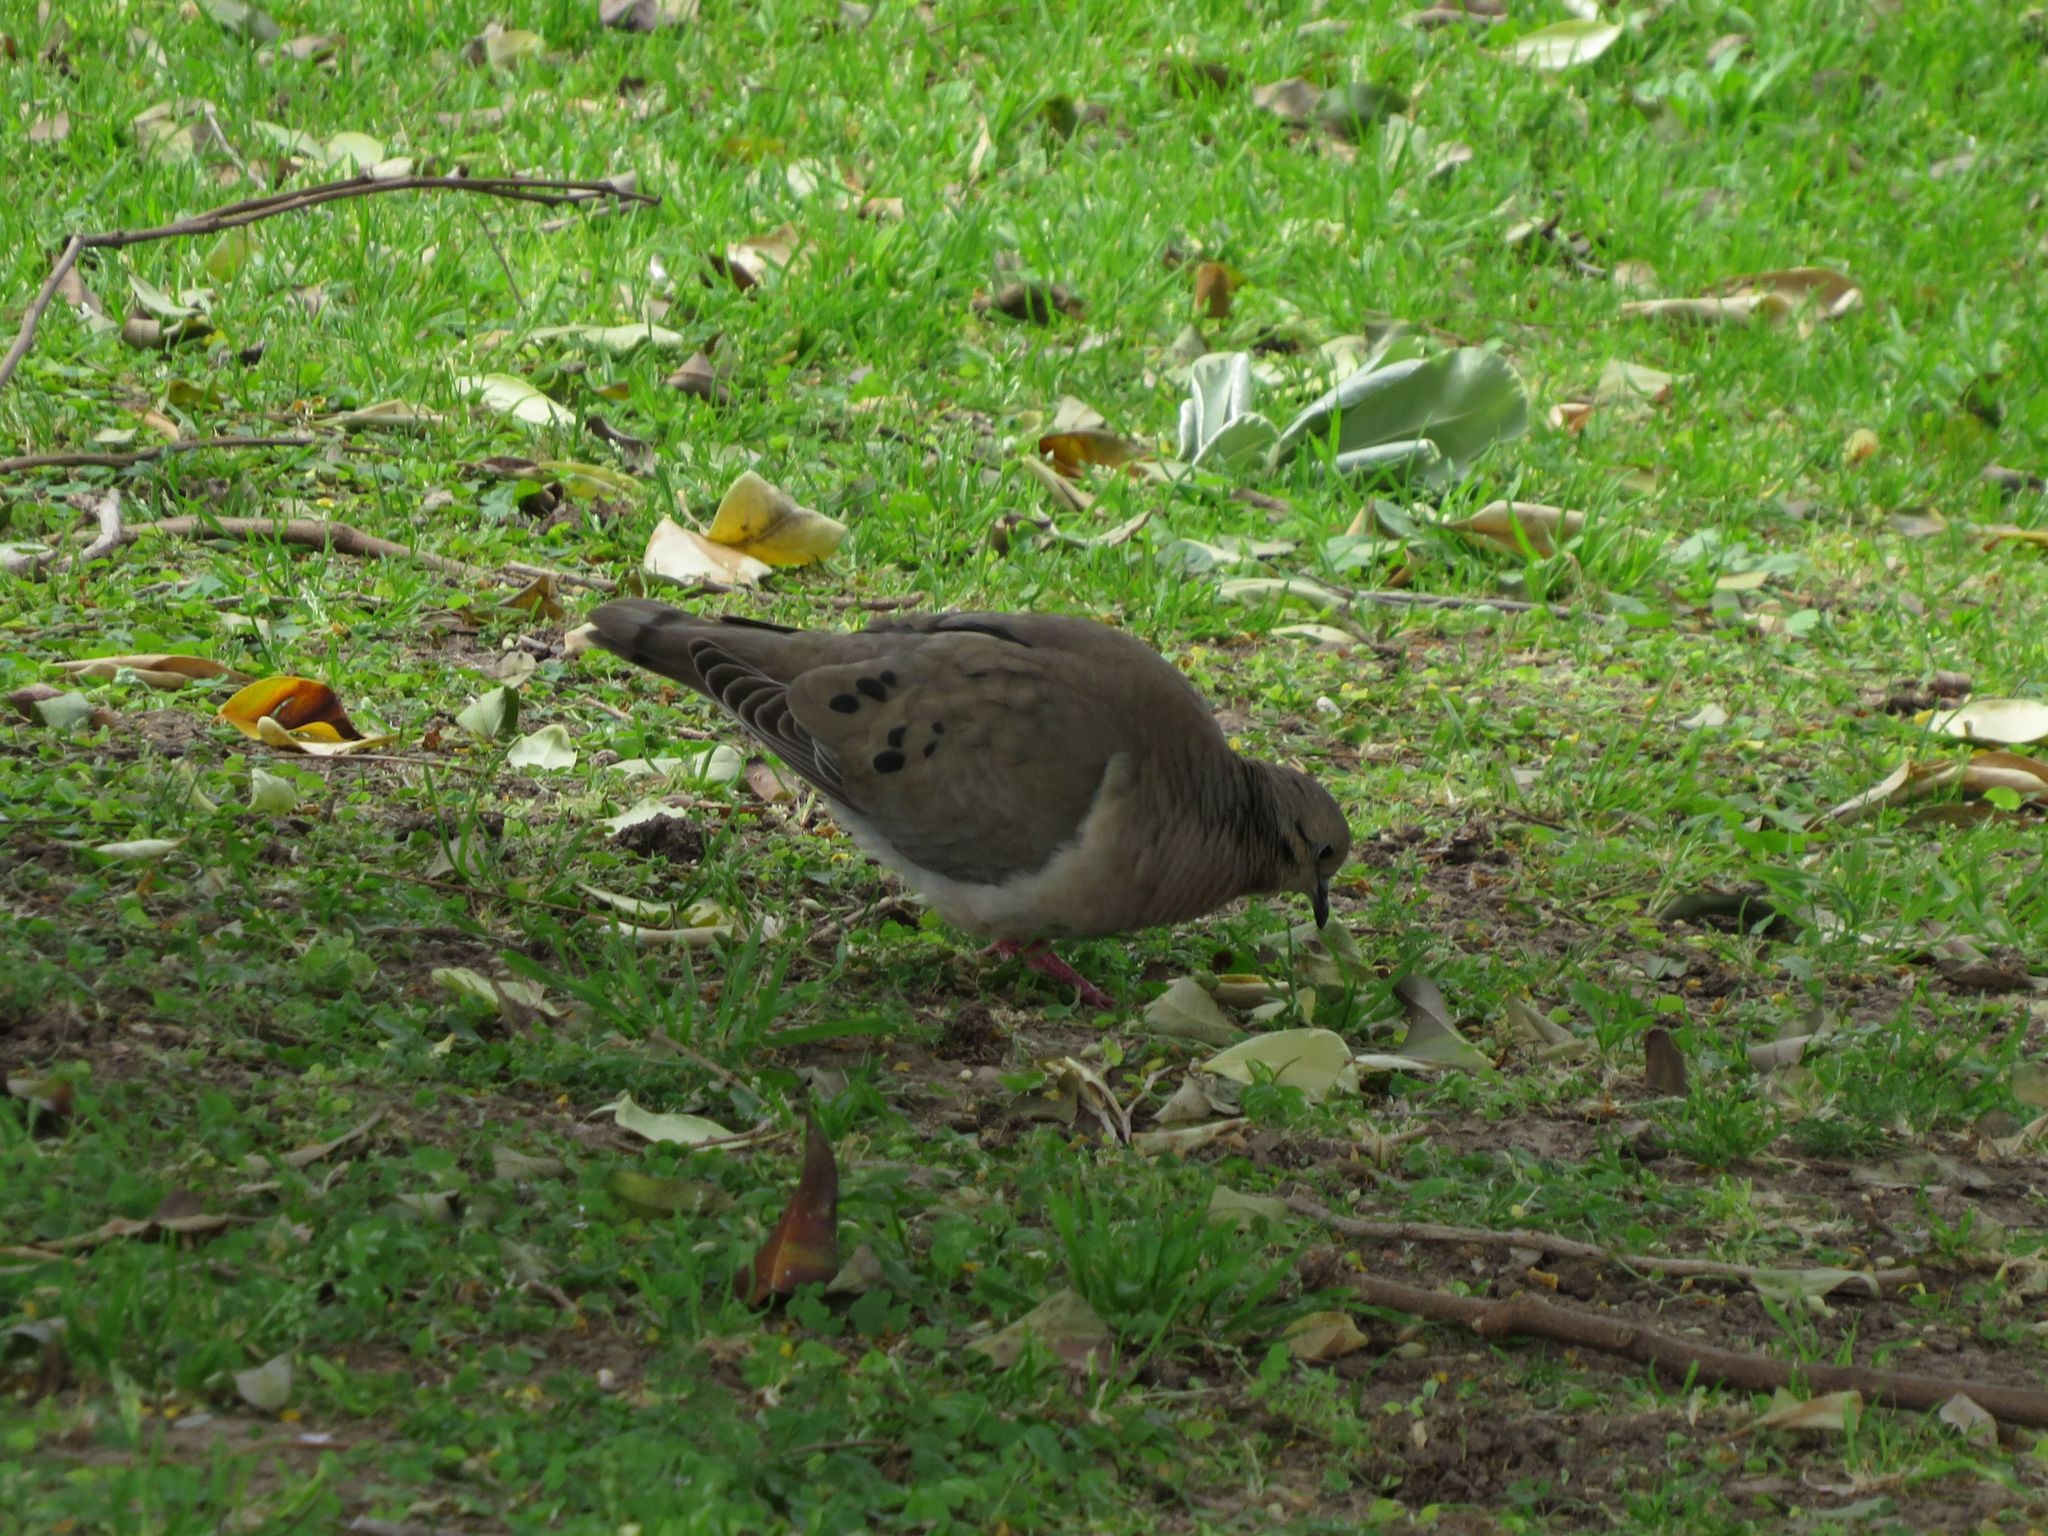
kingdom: Animalia
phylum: Chordata
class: Aves
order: Columbiformes
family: Columbidae
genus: Zenaida
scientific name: Zenaida auriculata
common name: Eared dove
